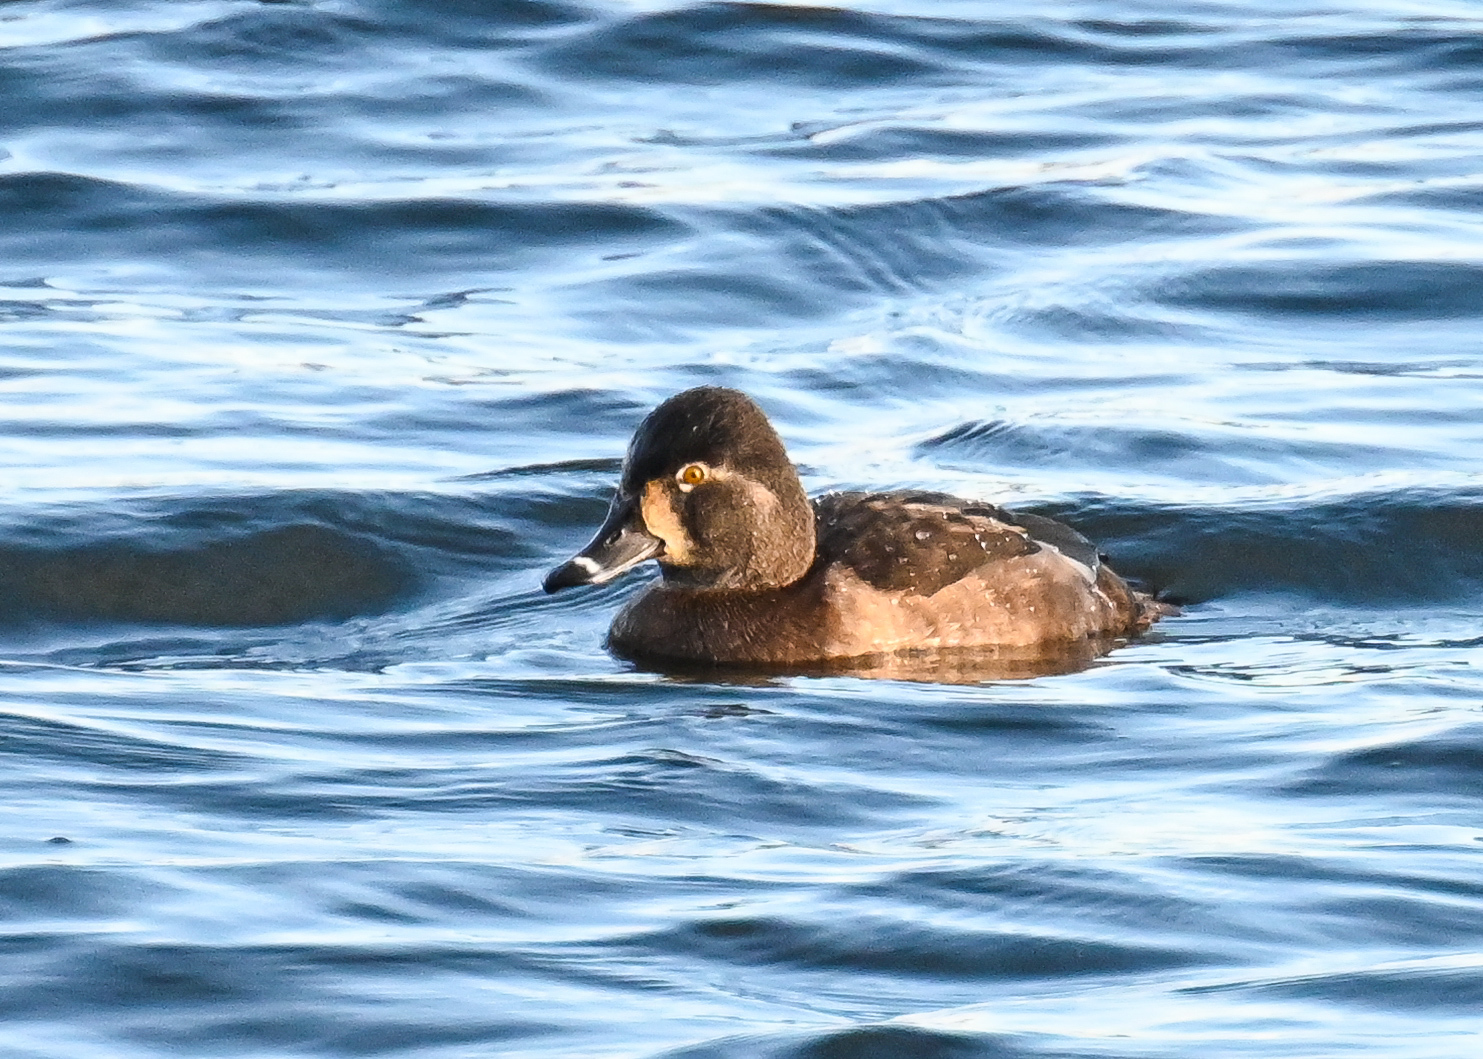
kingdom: Animalia
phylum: Chordata
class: Aves
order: Anseriformes
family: Anatidae
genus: Aythya
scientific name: Aythya collaris
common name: Ring-necked duck
